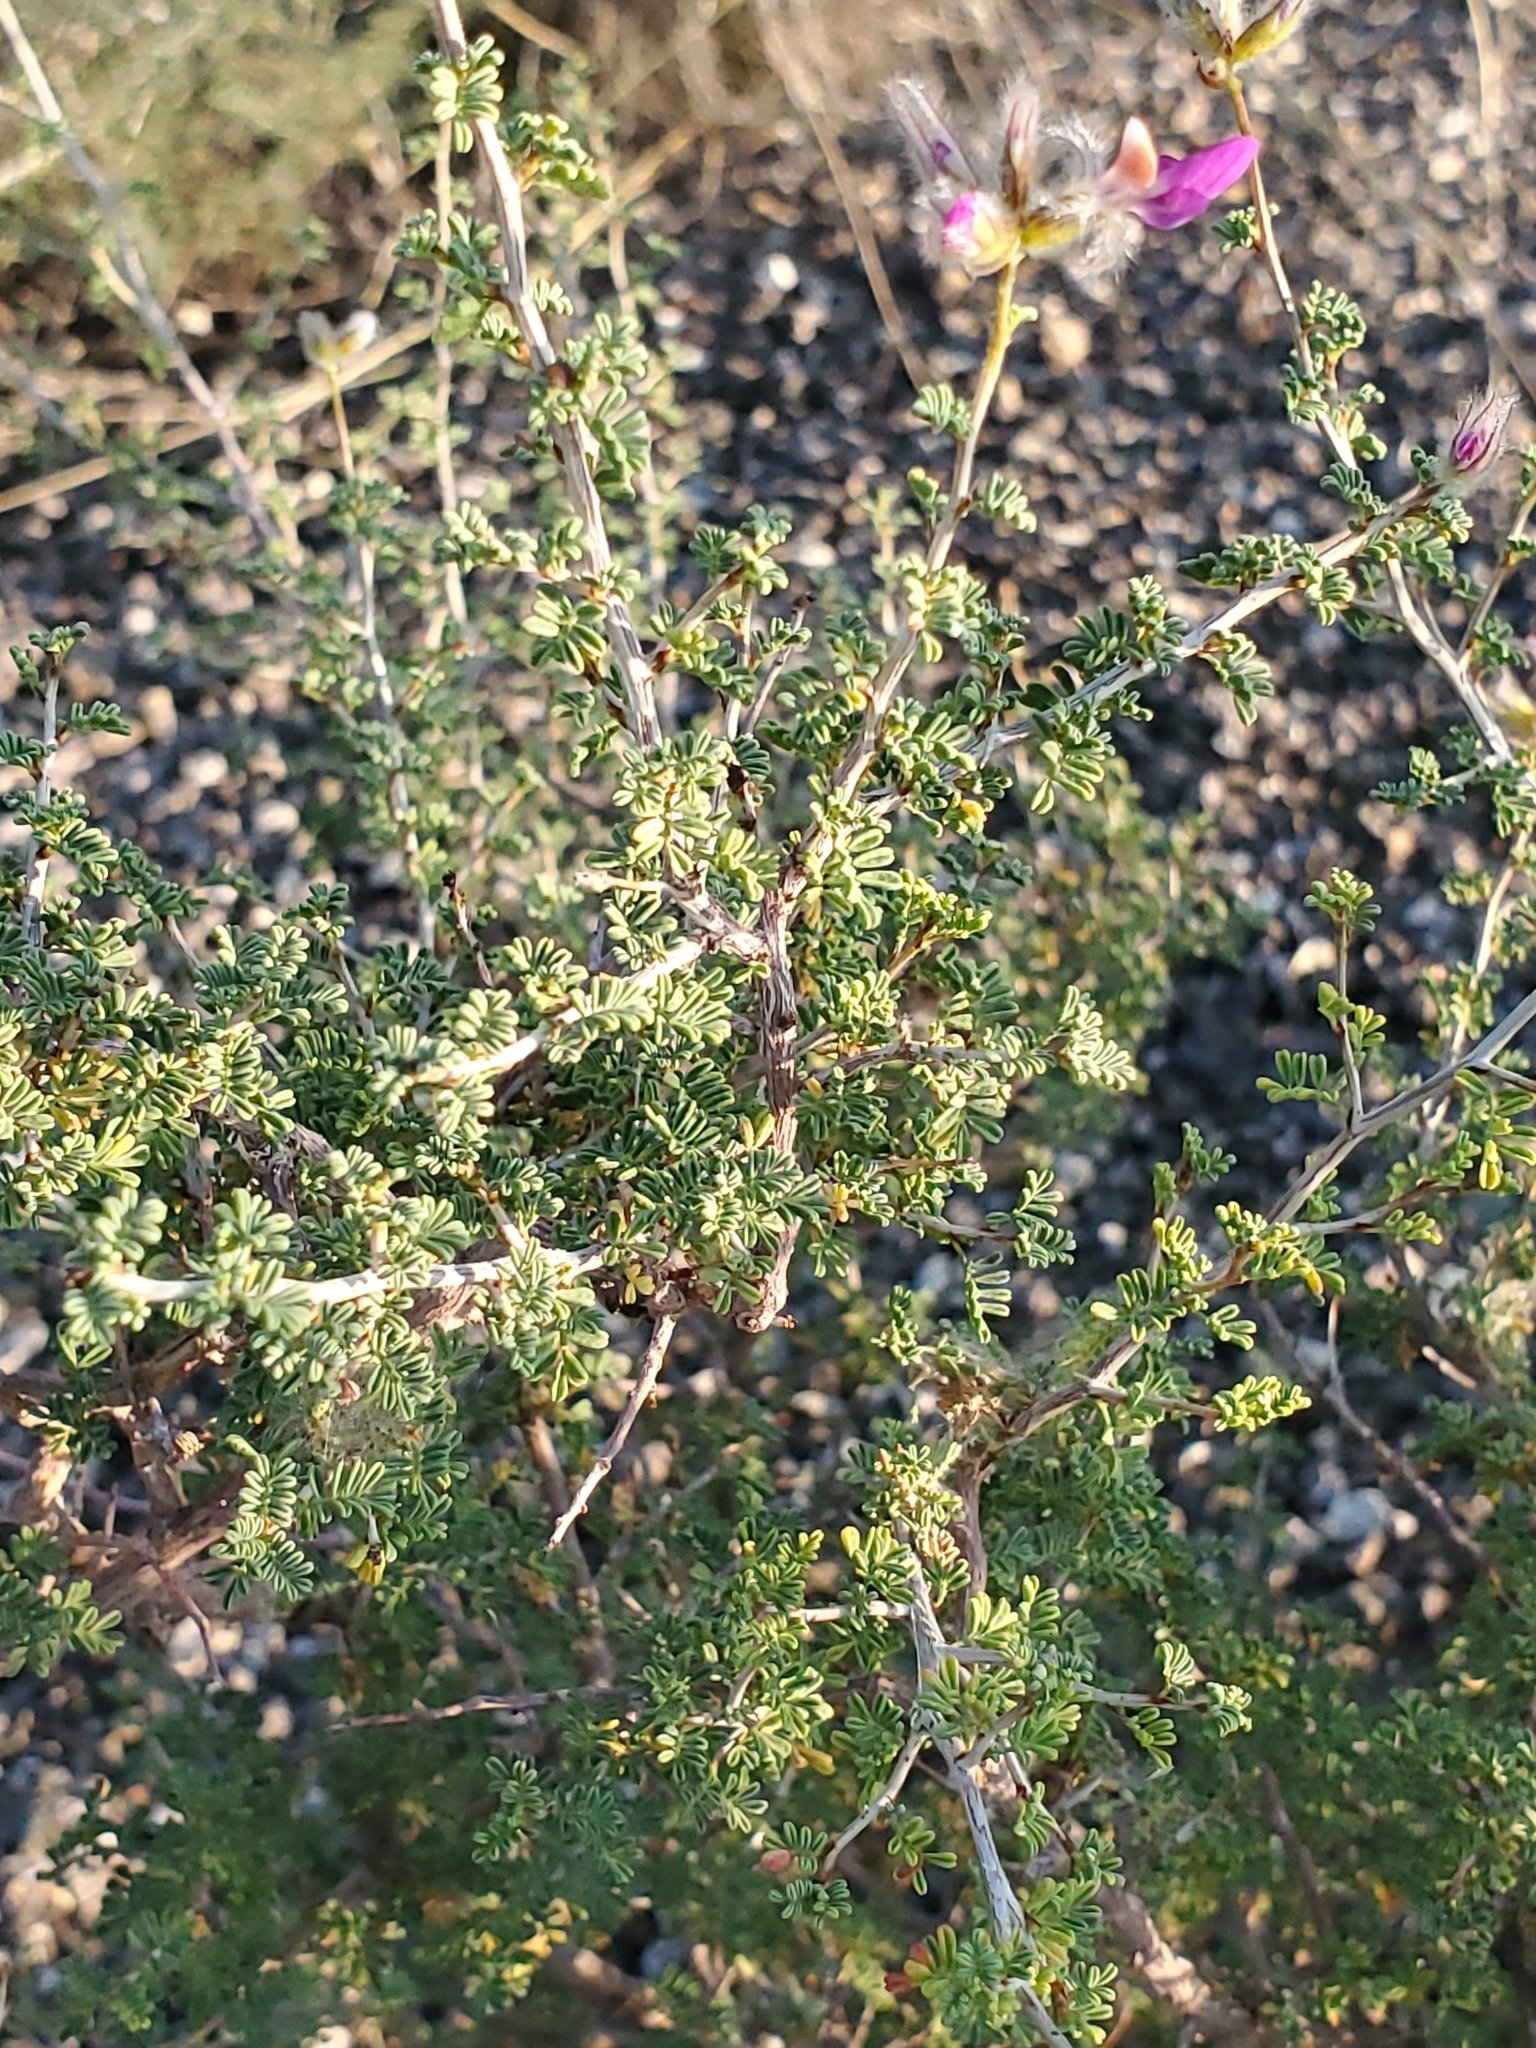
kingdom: Plantae
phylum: Tracheophyta
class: Magnoliopsida
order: Fabales
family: Fabaceae
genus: Dalea
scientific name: Dalea formosa
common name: Feather-plume dalea
